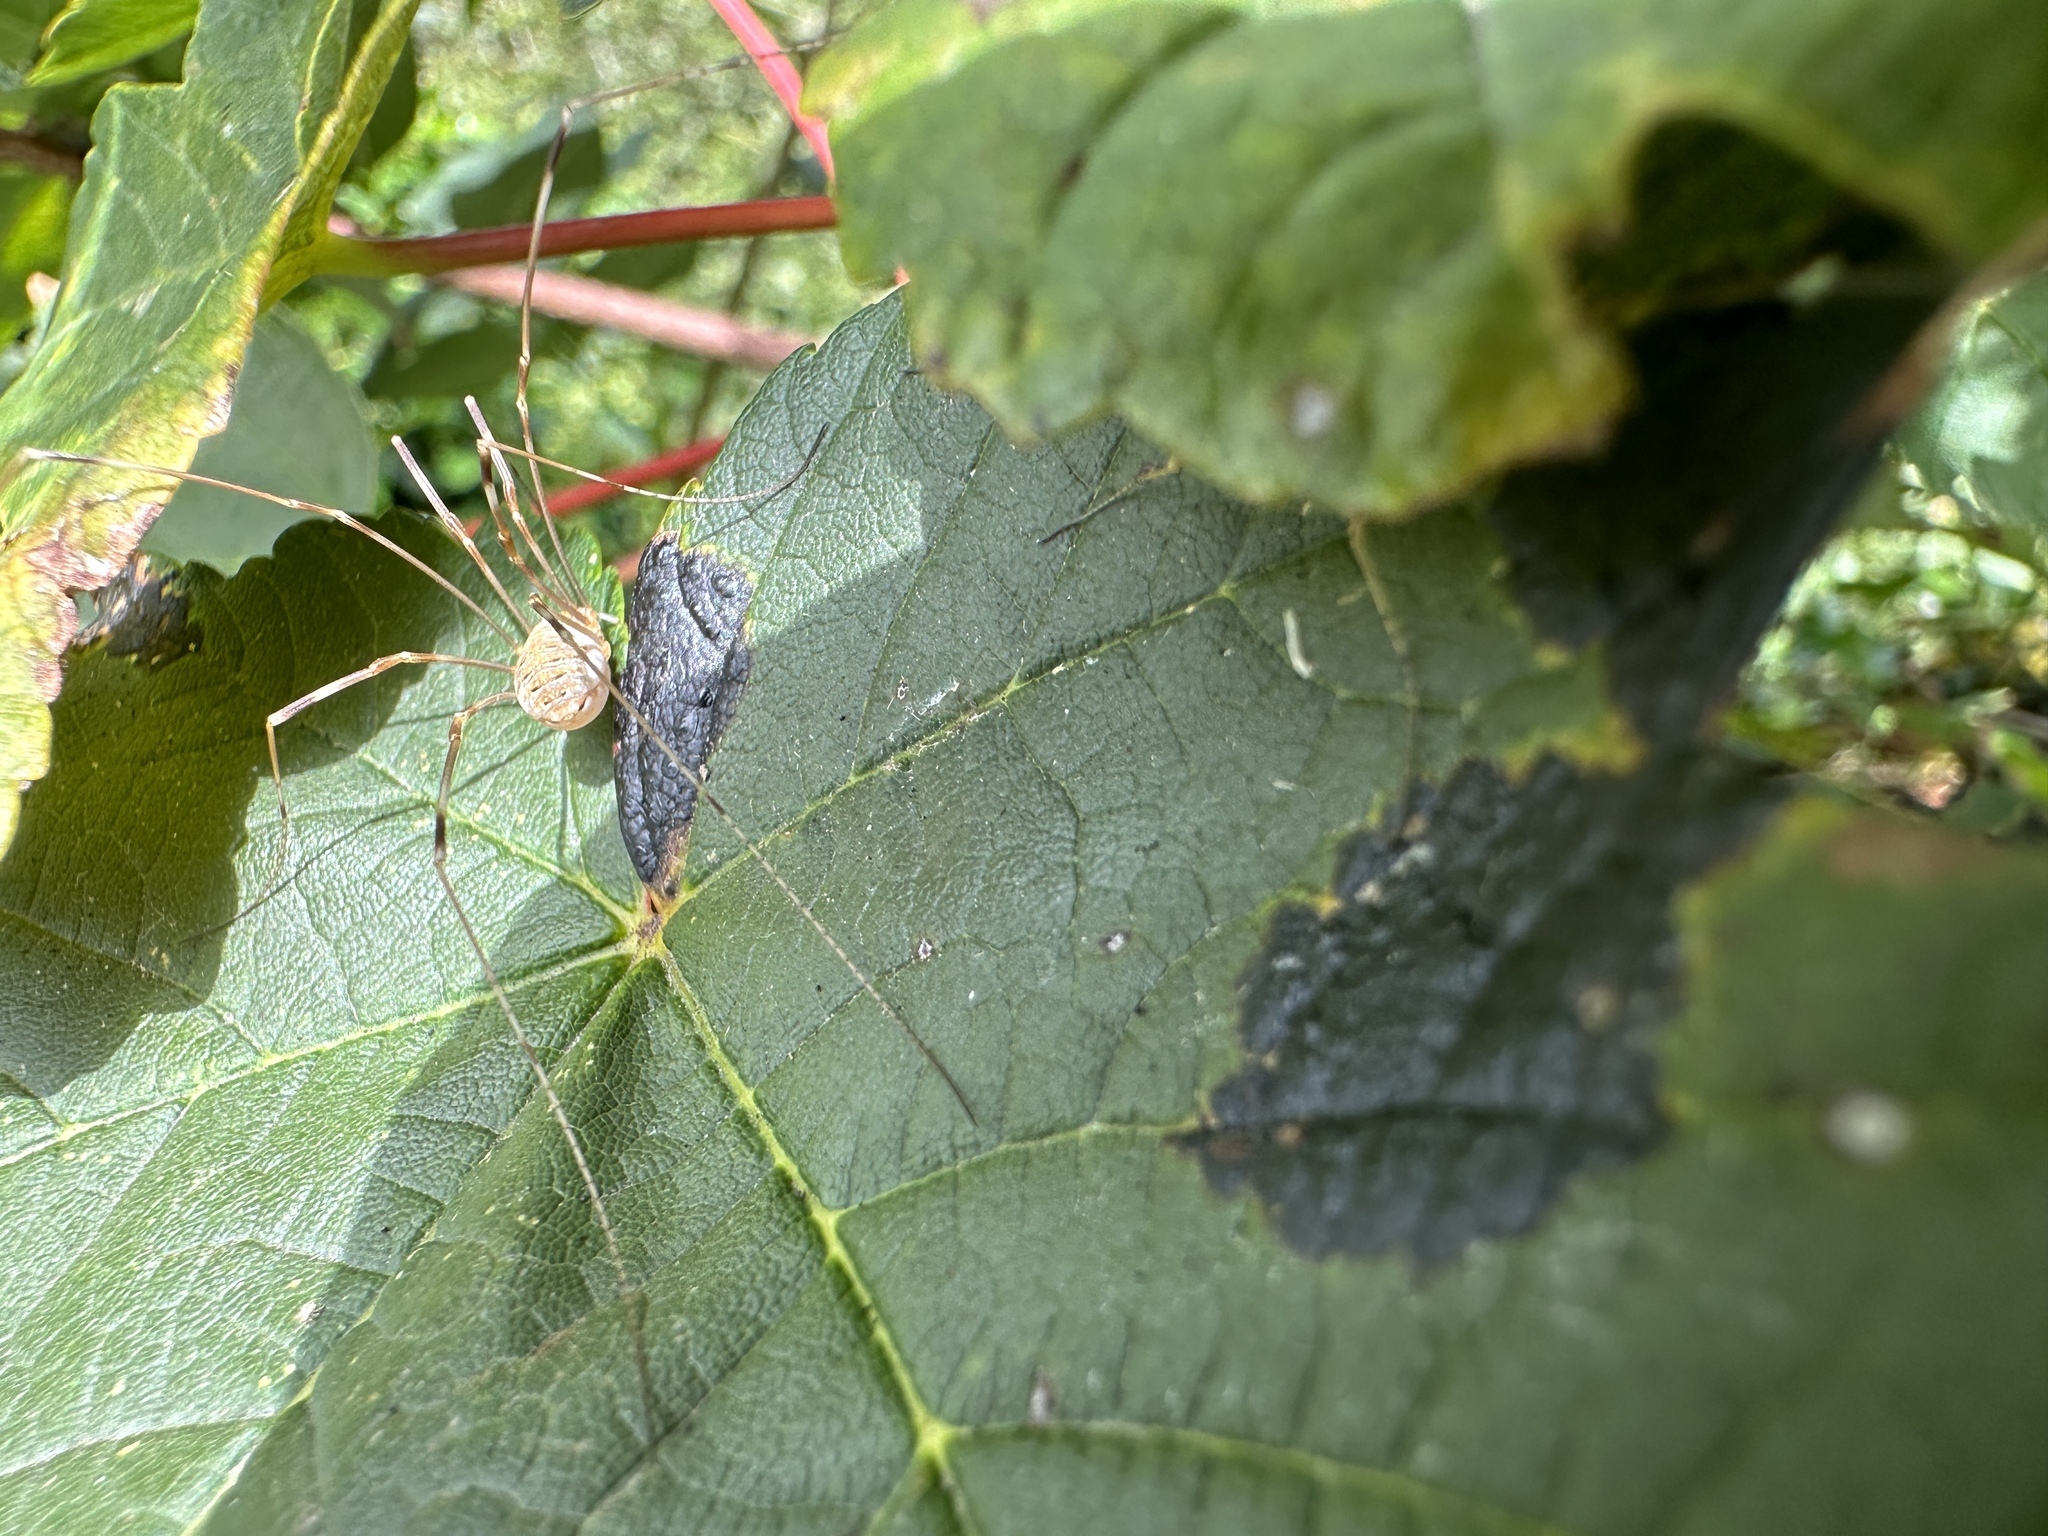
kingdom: Animalia
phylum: Arthropoda
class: Arachnida
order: Opiliones
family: Phalangiidae
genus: Opilio
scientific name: Opilio canestrinii
